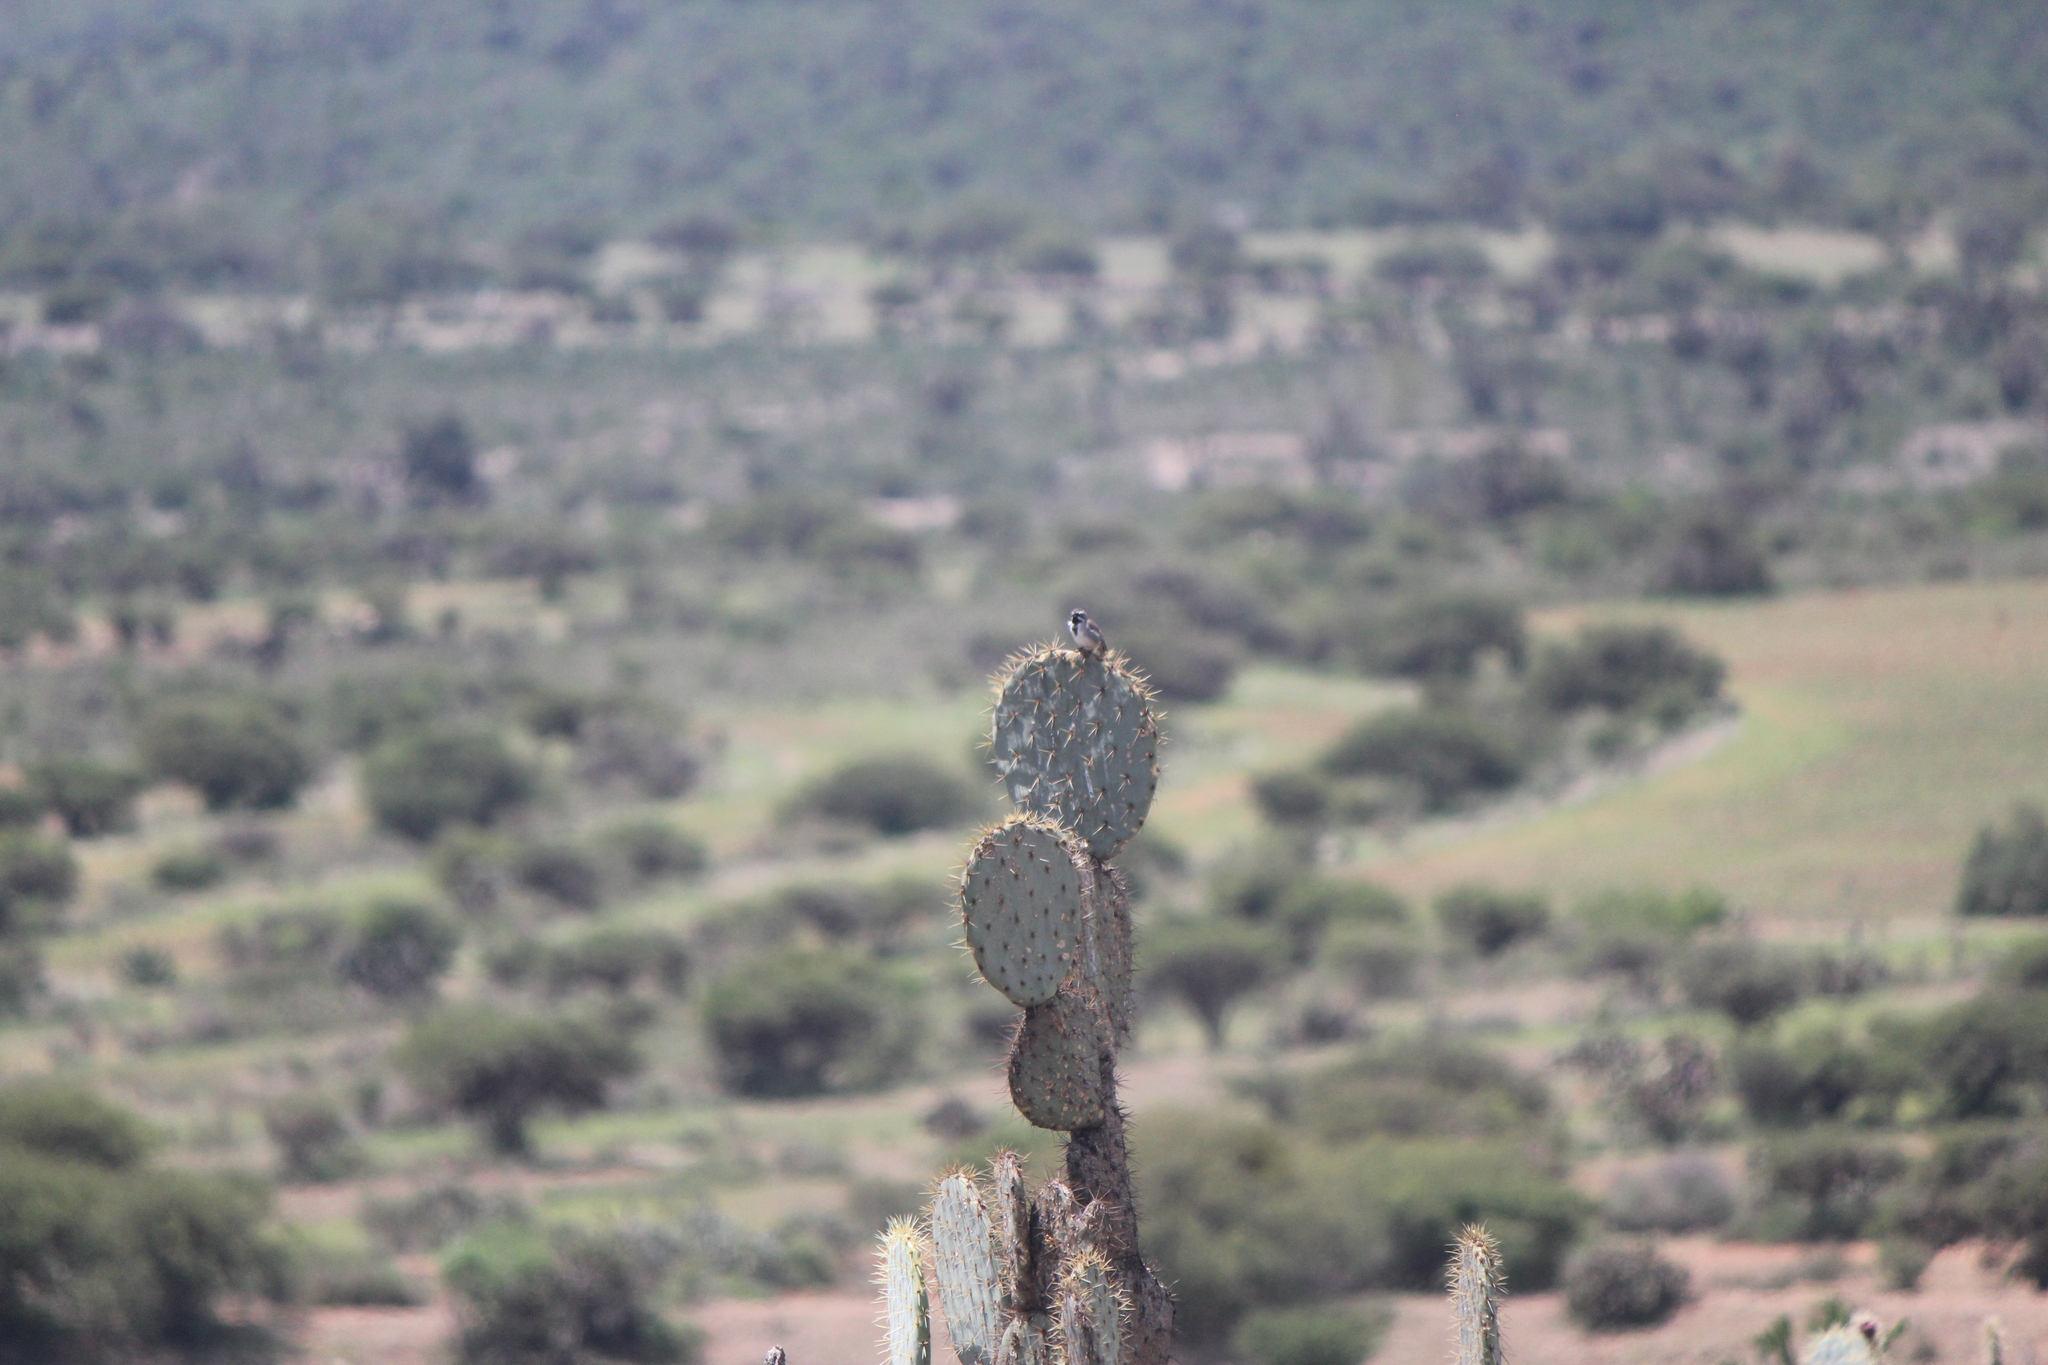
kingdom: Animalia
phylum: Chordata
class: Aves
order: Passeriformes
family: Passerellidae
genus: Amphispiza
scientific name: Amphispiza bilineata
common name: Black-throated sparrow
